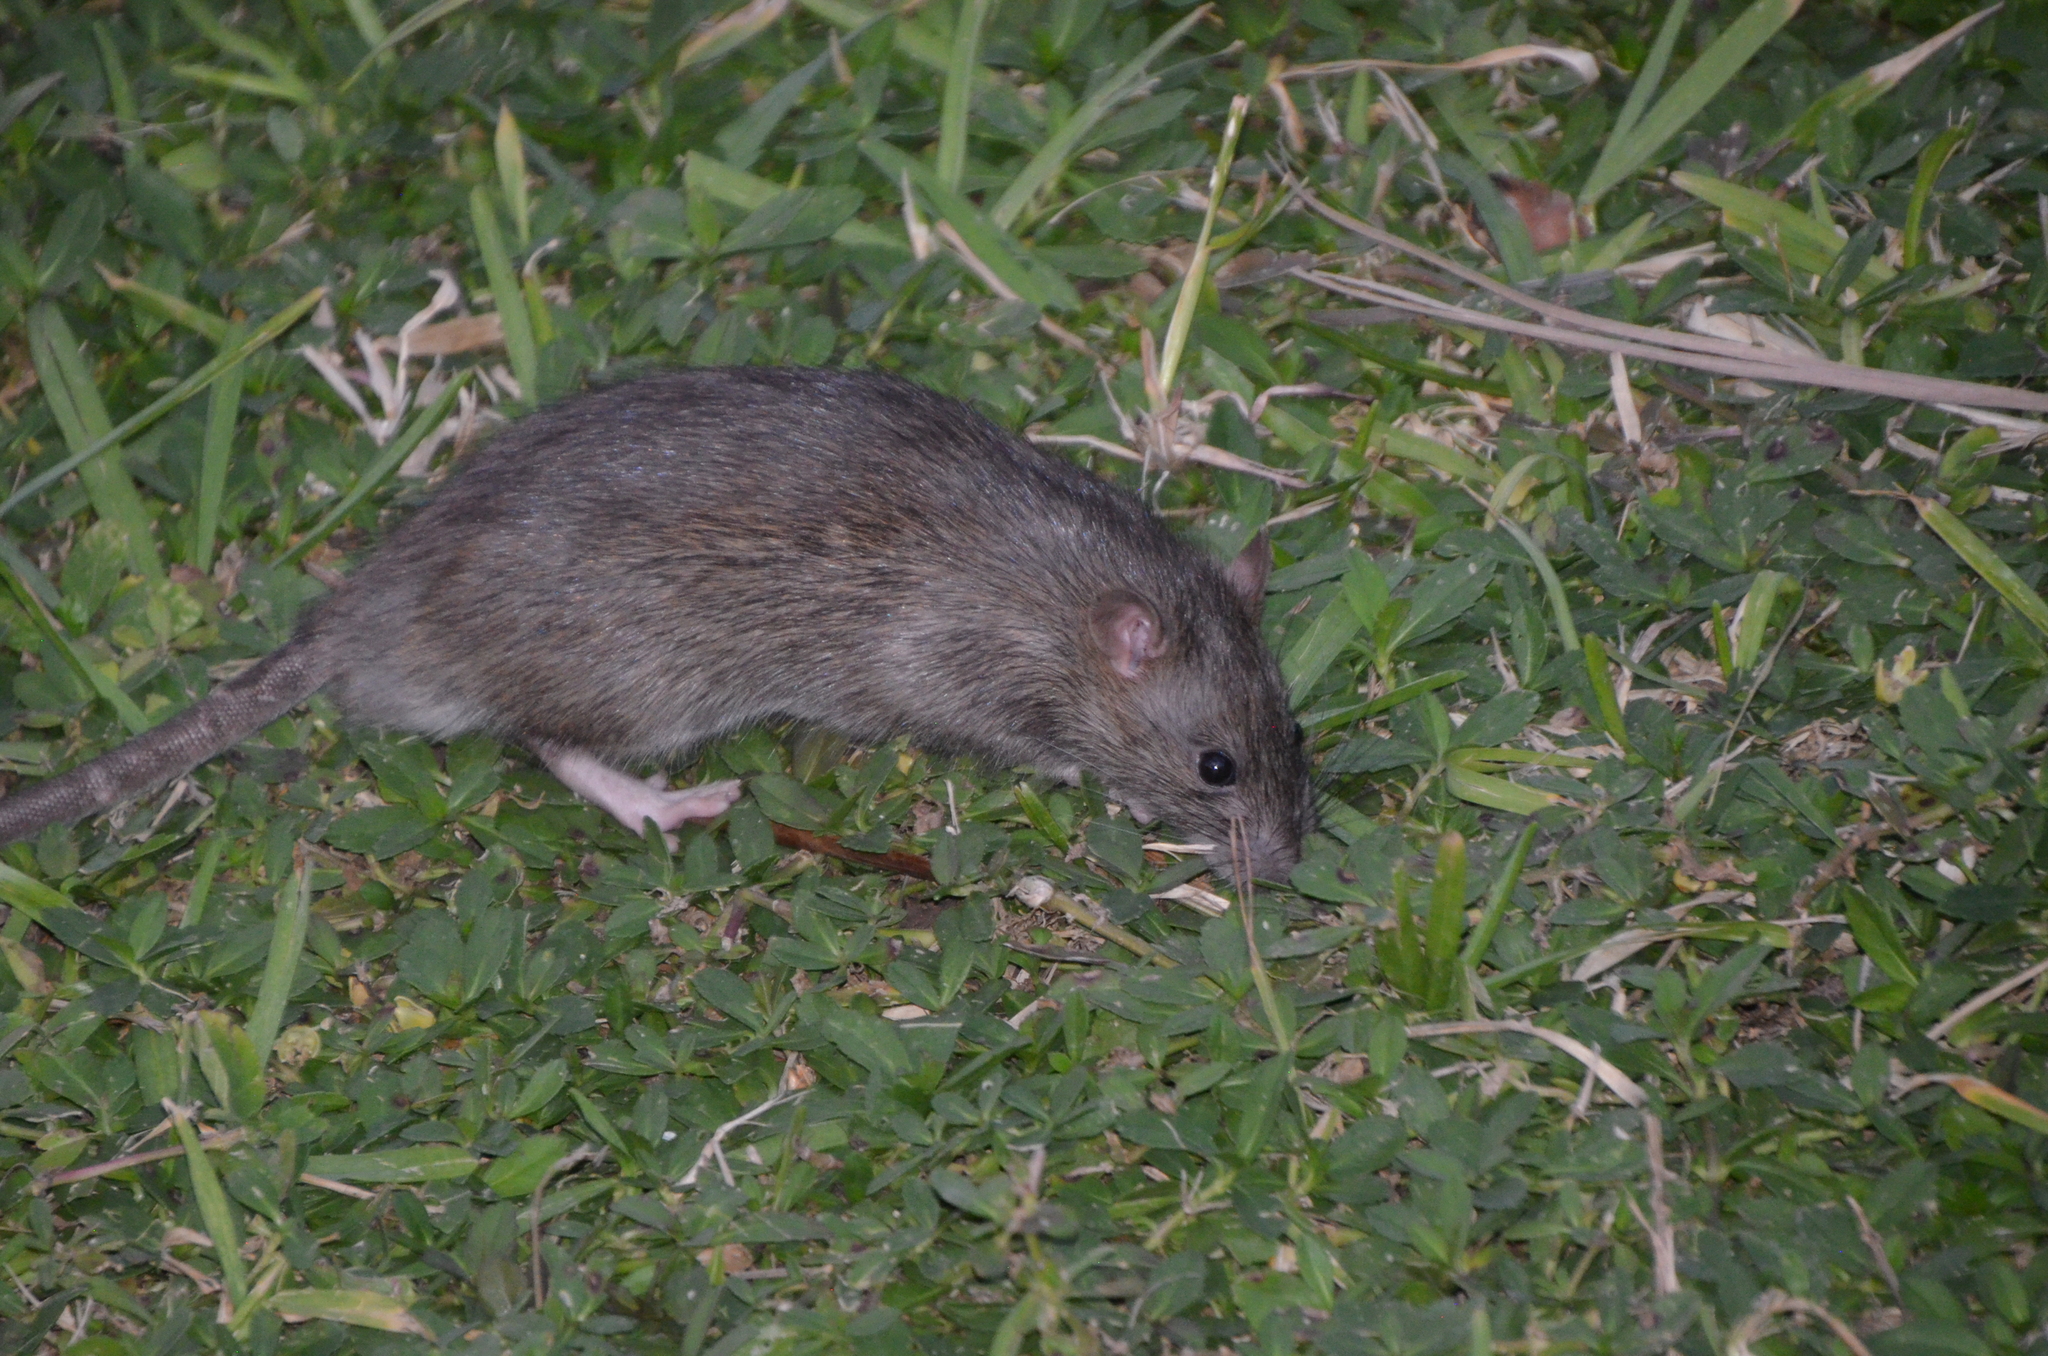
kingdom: Animalia
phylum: Chordata
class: Mammalia
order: Rodentia
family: Muridae
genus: Rattus
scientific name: Rattus norvegicus
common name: Brown rat
